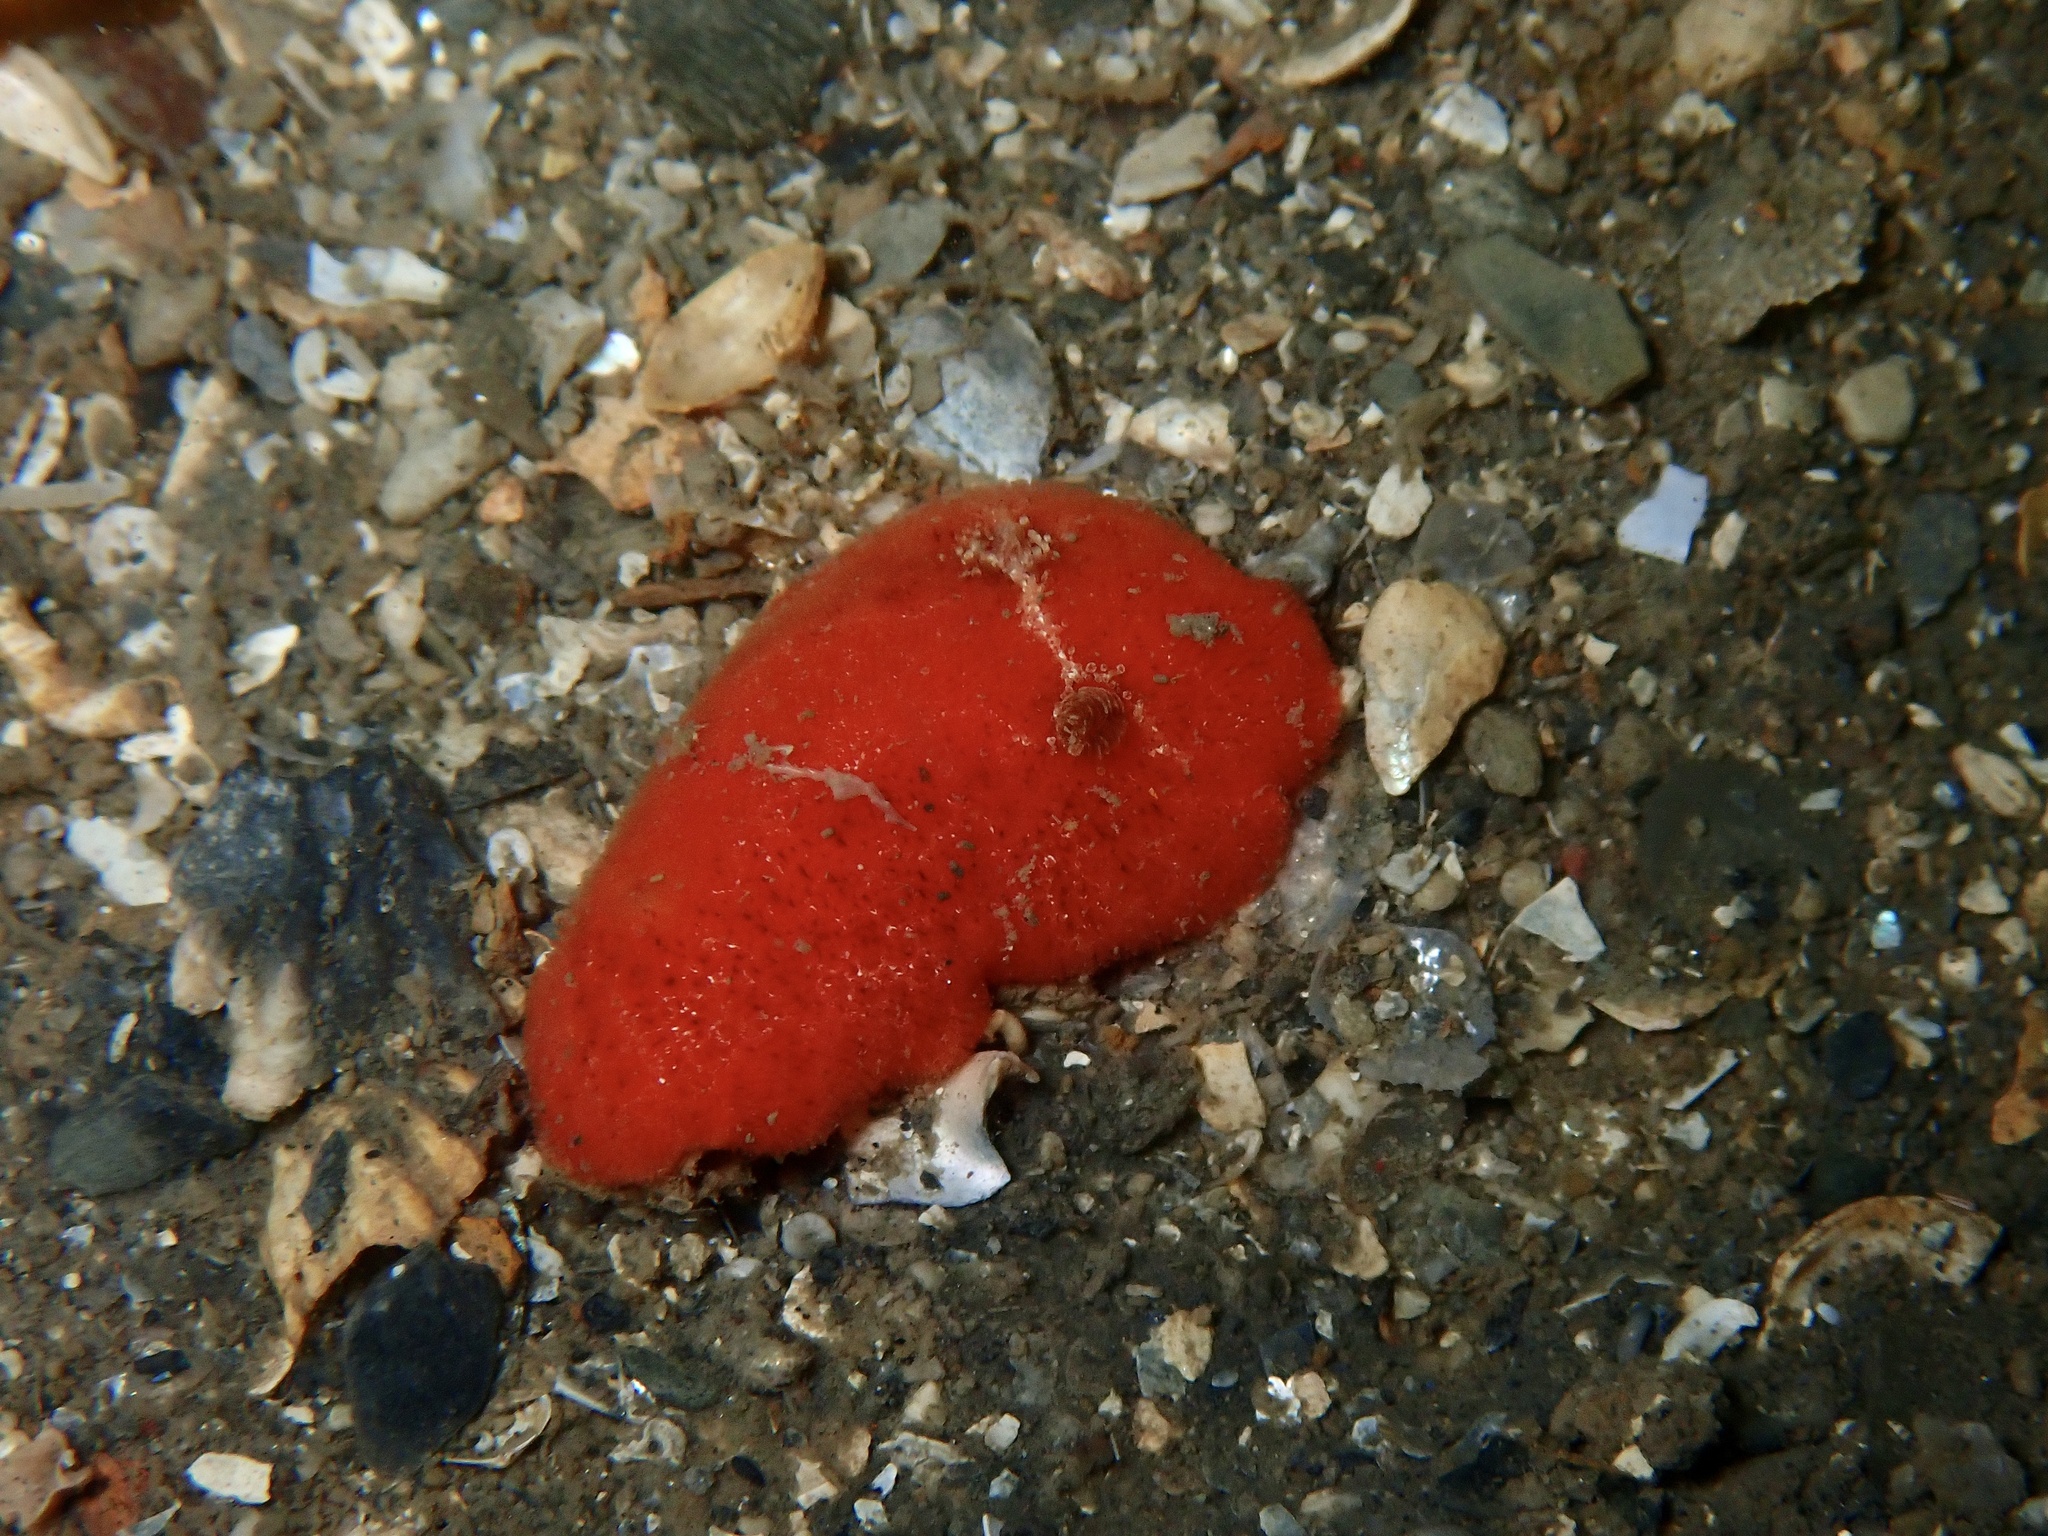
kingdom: Animalia
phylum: Mollusca
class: Gastropoda
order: Nudibranchia
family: Discodorididae
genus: Rostanga
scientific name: Rostanga rubra
